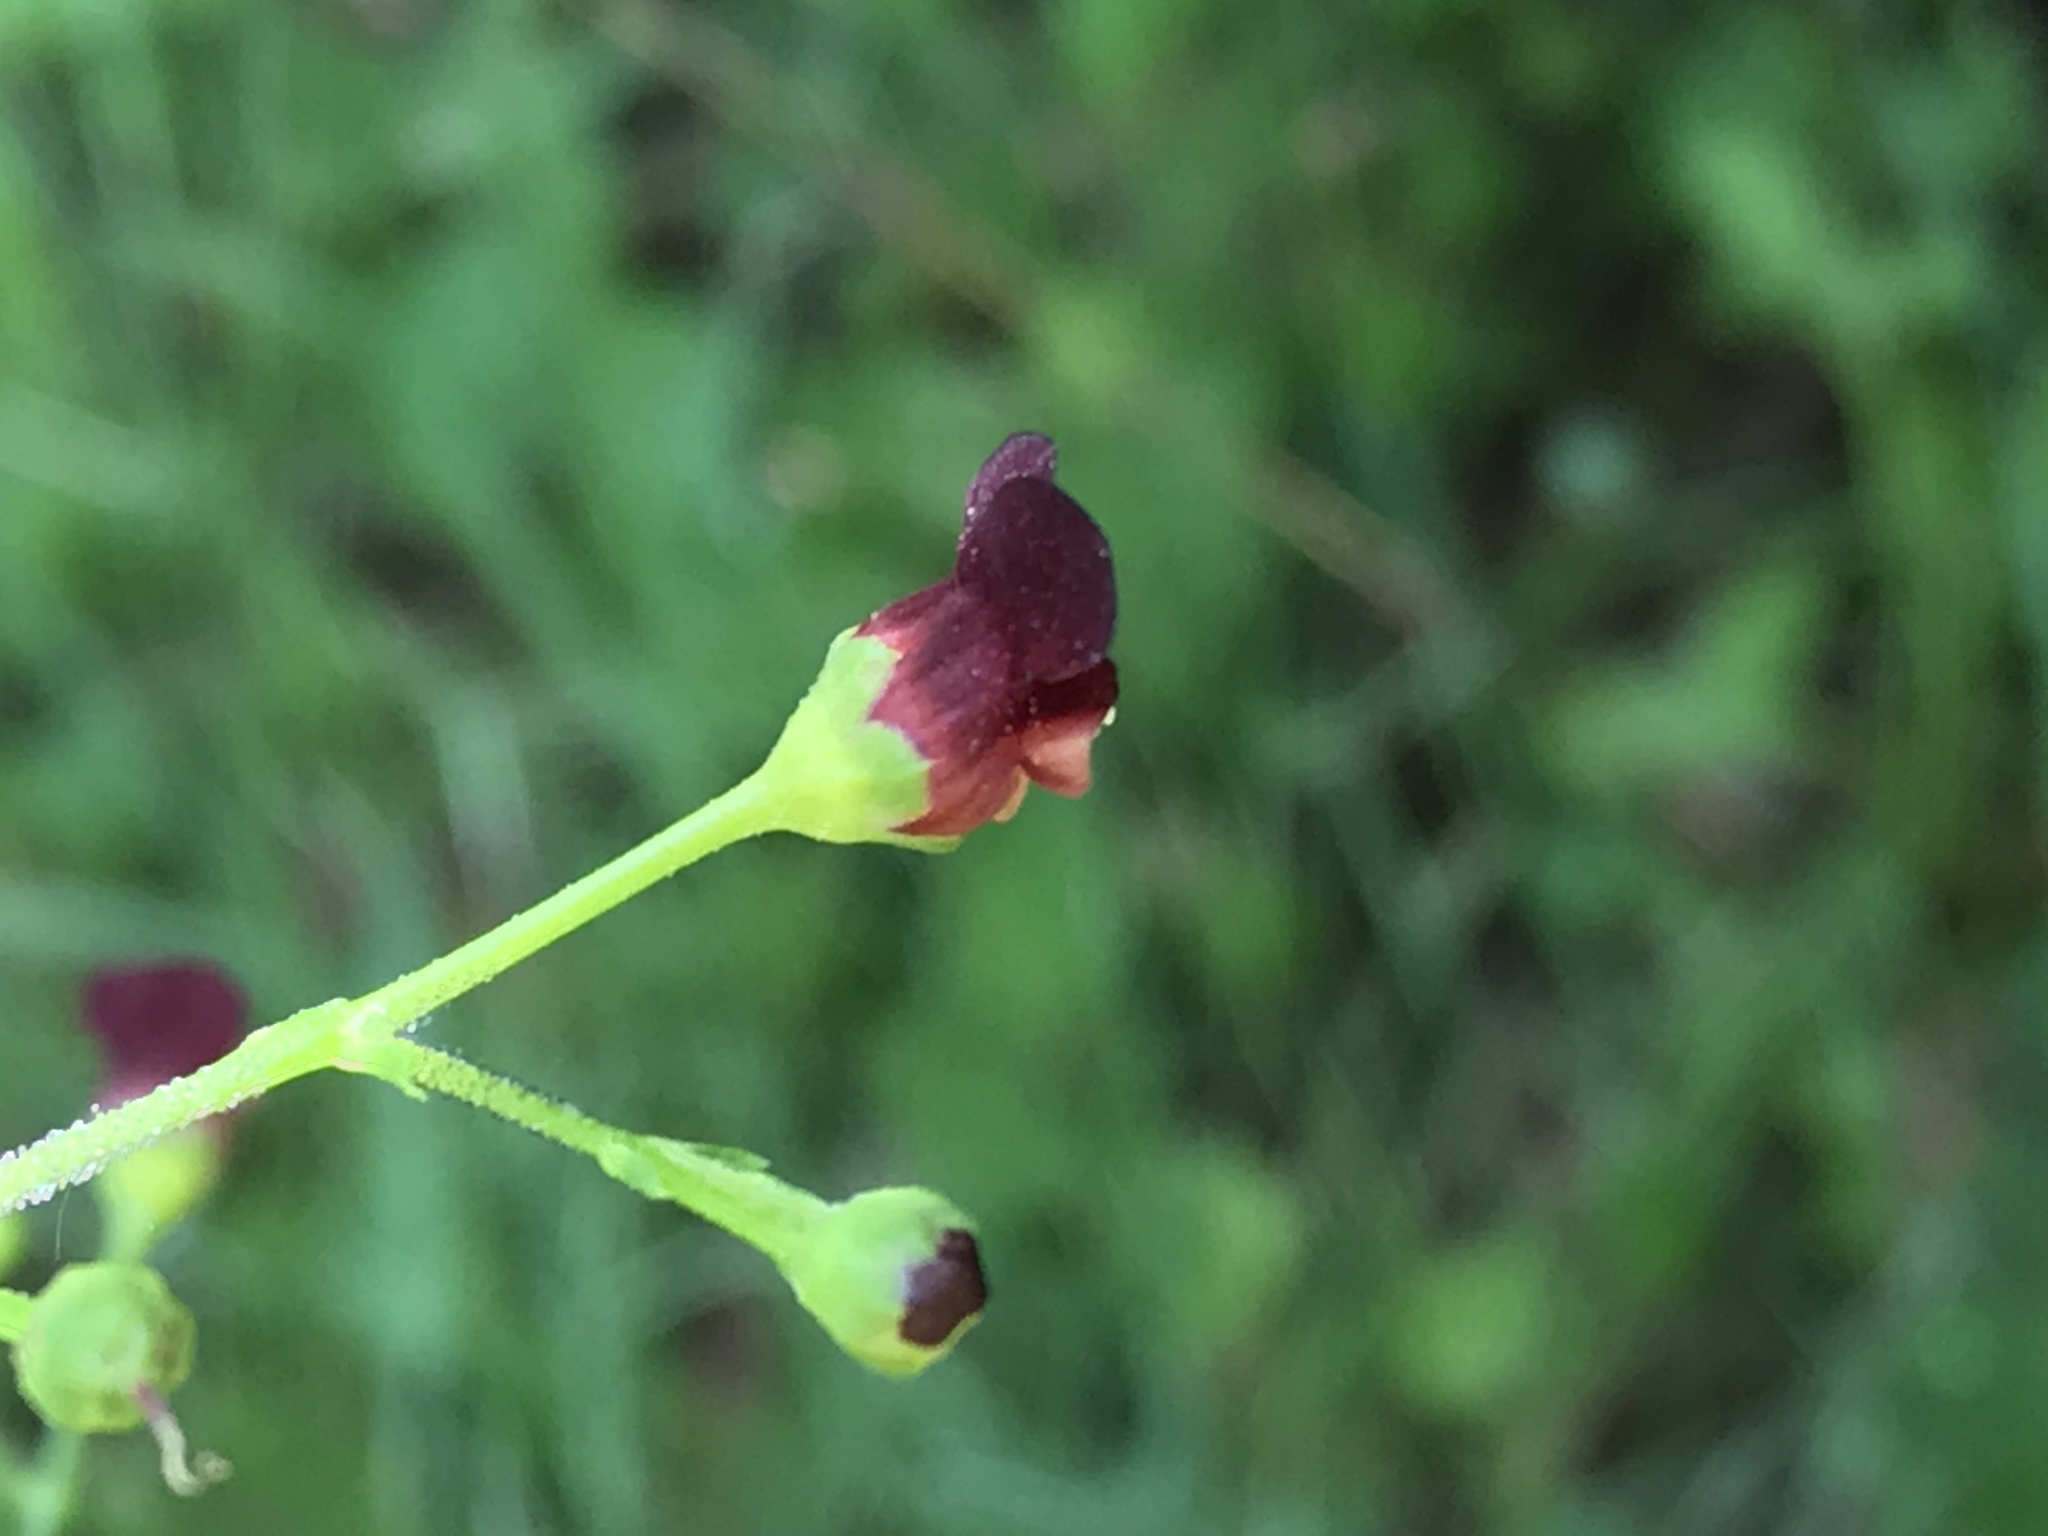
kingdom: Plantae
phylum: Tracheophyta
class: Magnoliopsida
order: Lamiales
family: Scrophulariaceae
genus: Scrophularia
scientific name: Scrophularia californica
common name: California figwort
